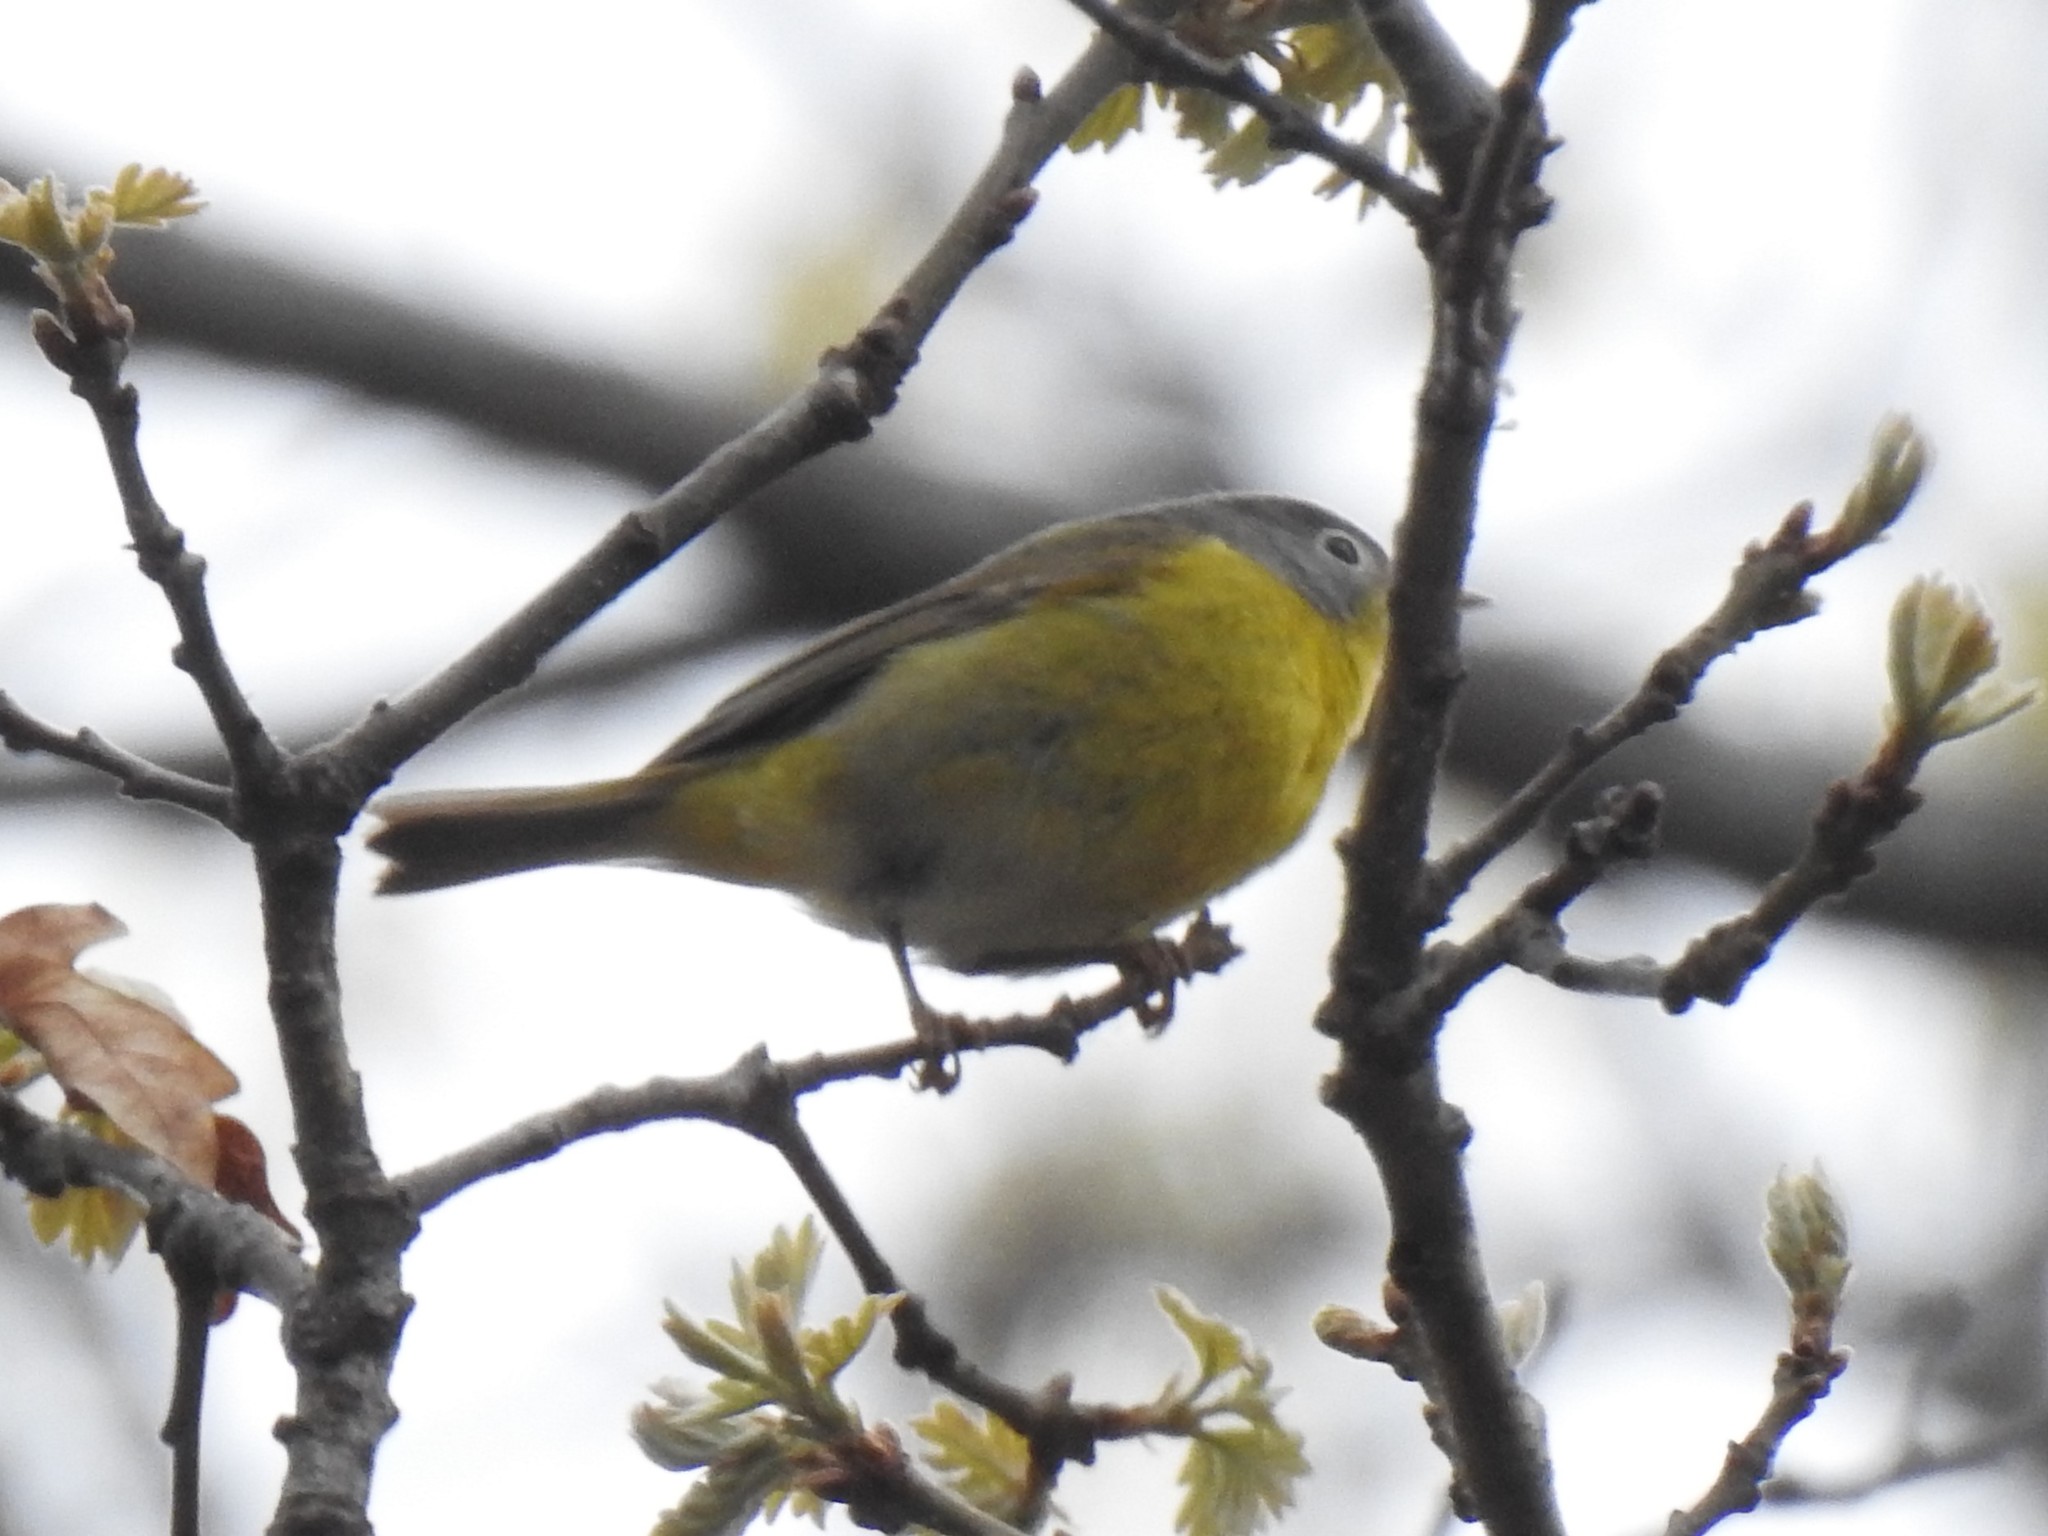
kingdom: Animalia
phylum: Chordata
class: Aves
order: Passeriformes
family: Parulidae
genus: Leiothlypis
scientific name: Leiothlypis ruficapilla
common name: Nashville warbler
